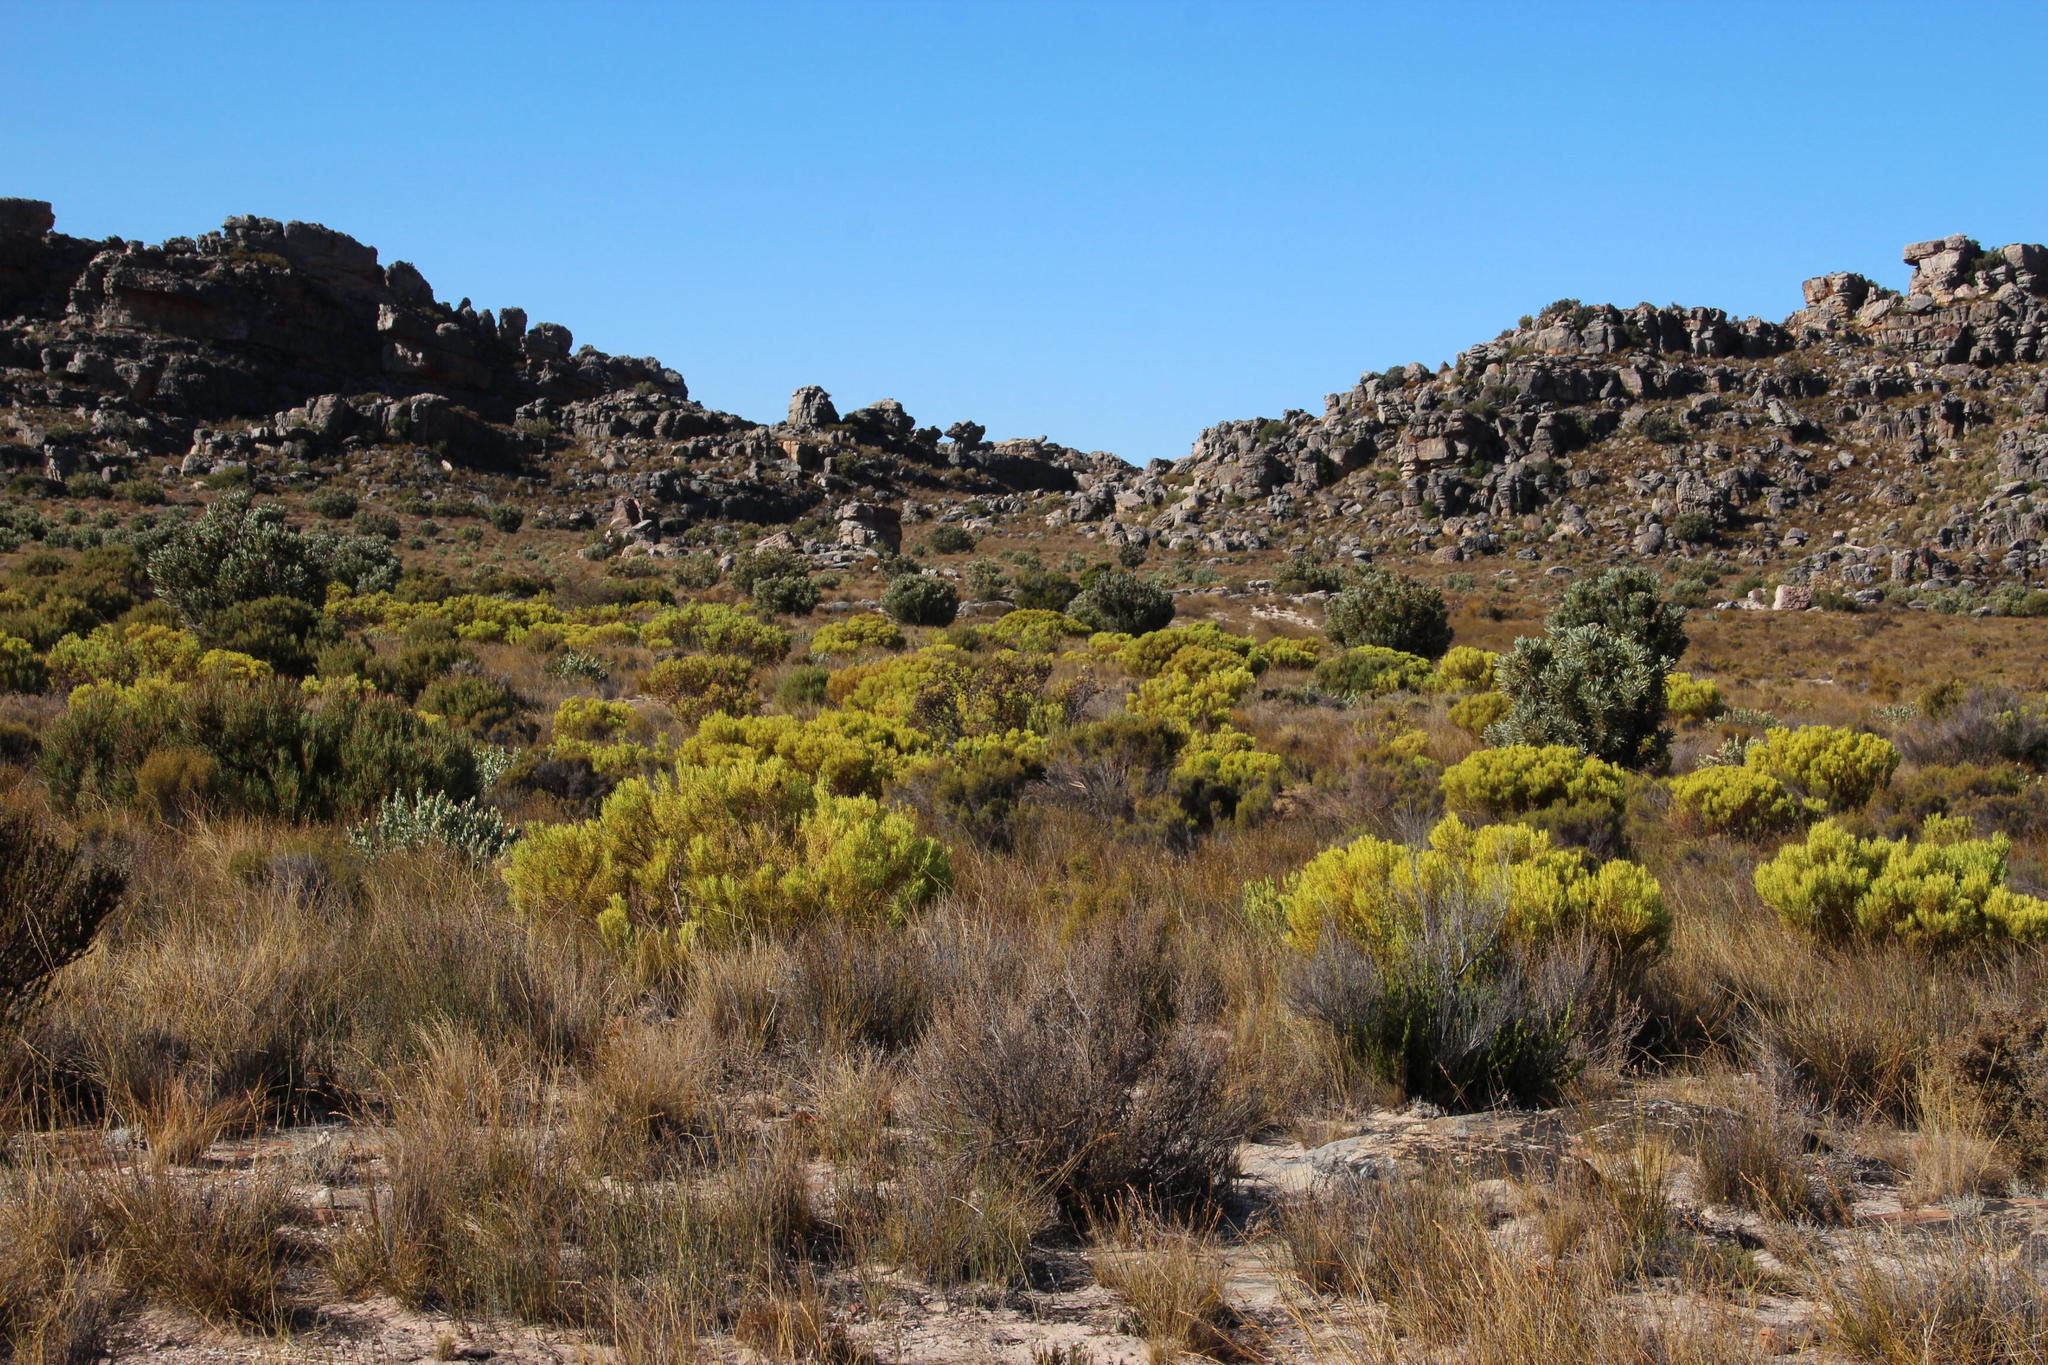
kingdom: Plantae
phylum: Tracheophyta
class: Magnoliopsida
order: Proteales
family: Proteaceae
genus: Leucadendron
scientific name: Leucadendron salignum
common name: Common sunshine conebush
